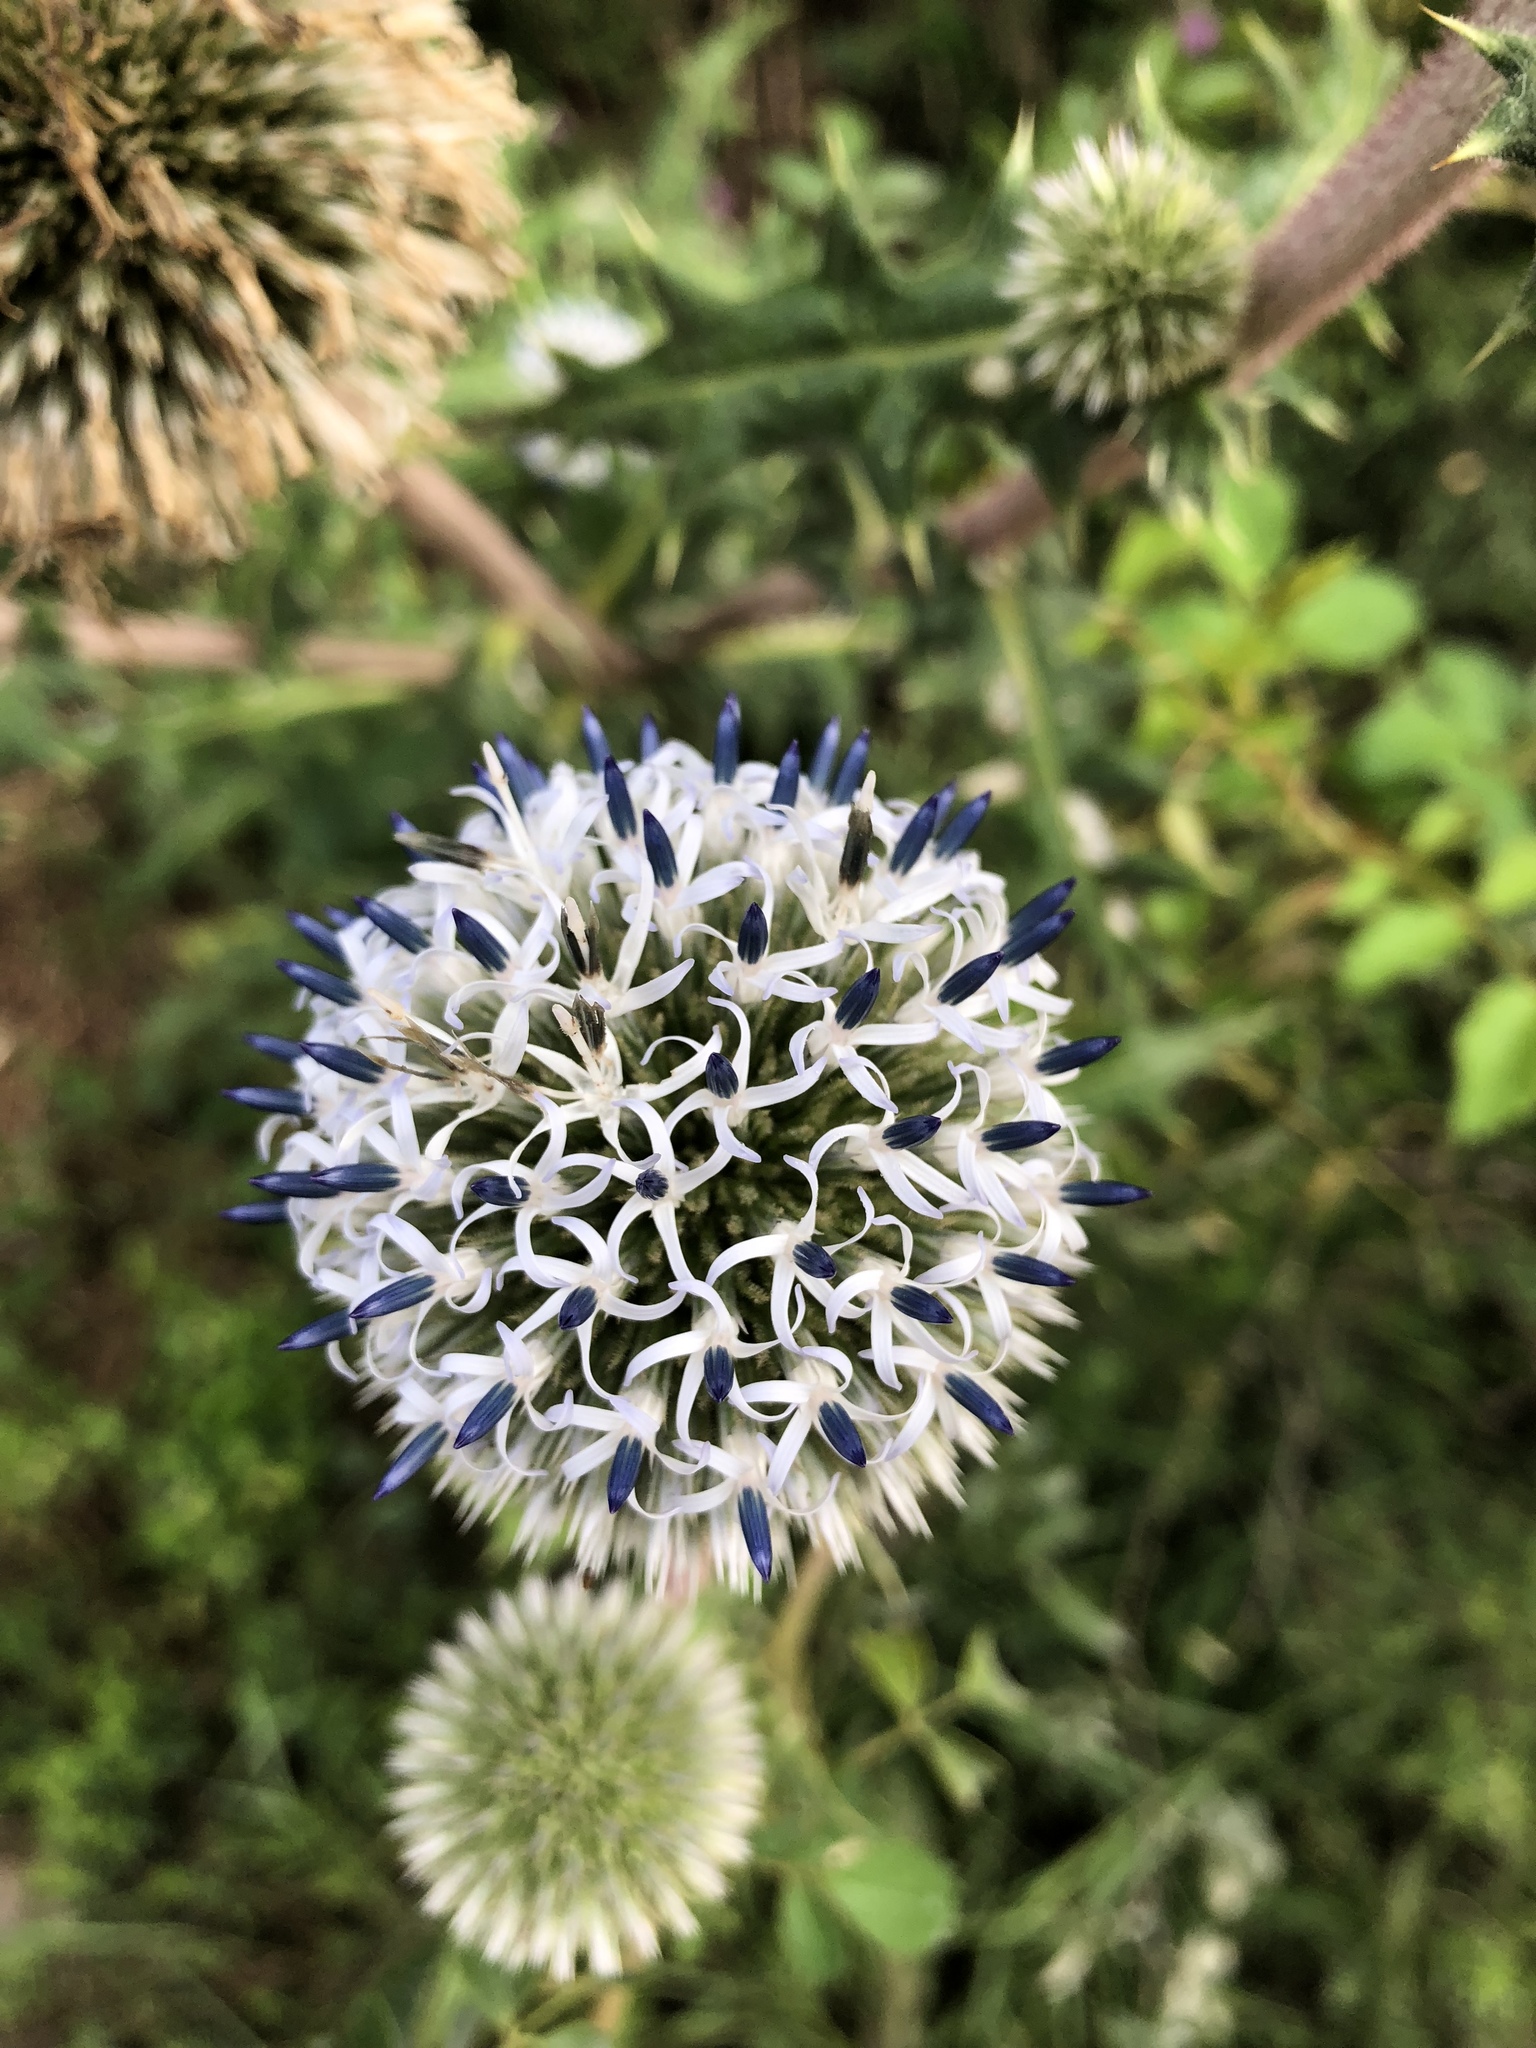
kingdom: Plantae
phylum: Tracheophyta
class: Magnoliopsida
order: Asterales
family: Asteraceae
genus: Echinops
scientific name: Echinops sphaerocephalus
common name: Glandular globe-thistle
